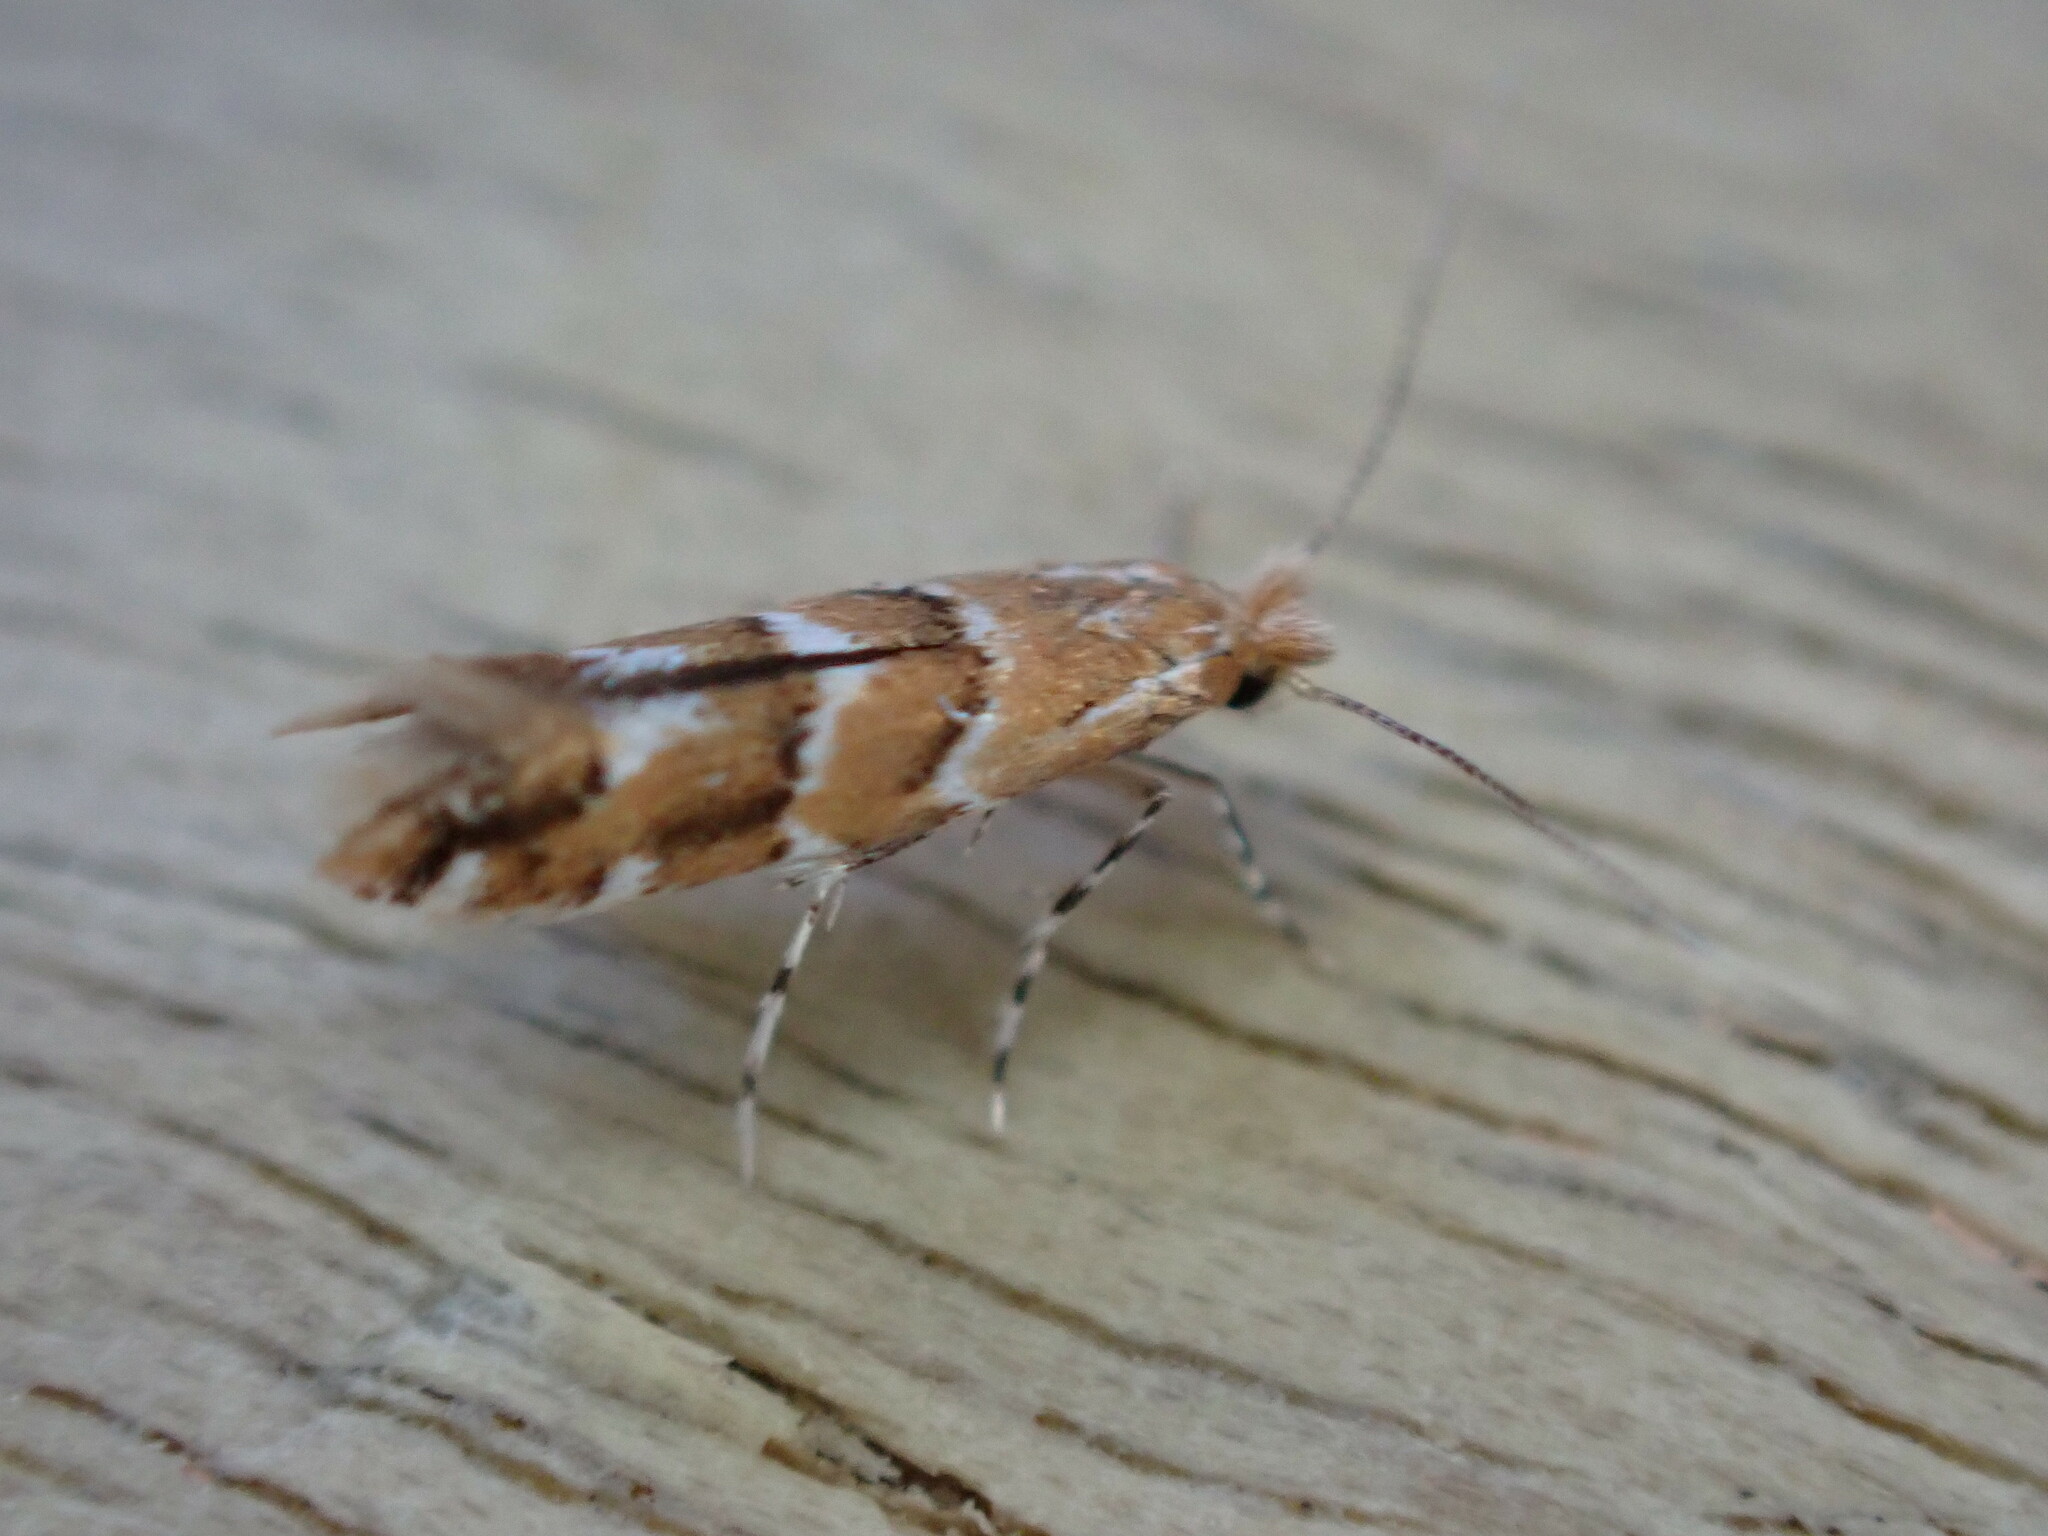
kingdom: Animalia
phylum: Arthropoda
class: Insecta
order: Lepidoptera
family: Gracillariidae
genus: Cameraria
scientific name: Cameraria ohridella
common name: Horse-chestnut leaf-miner
